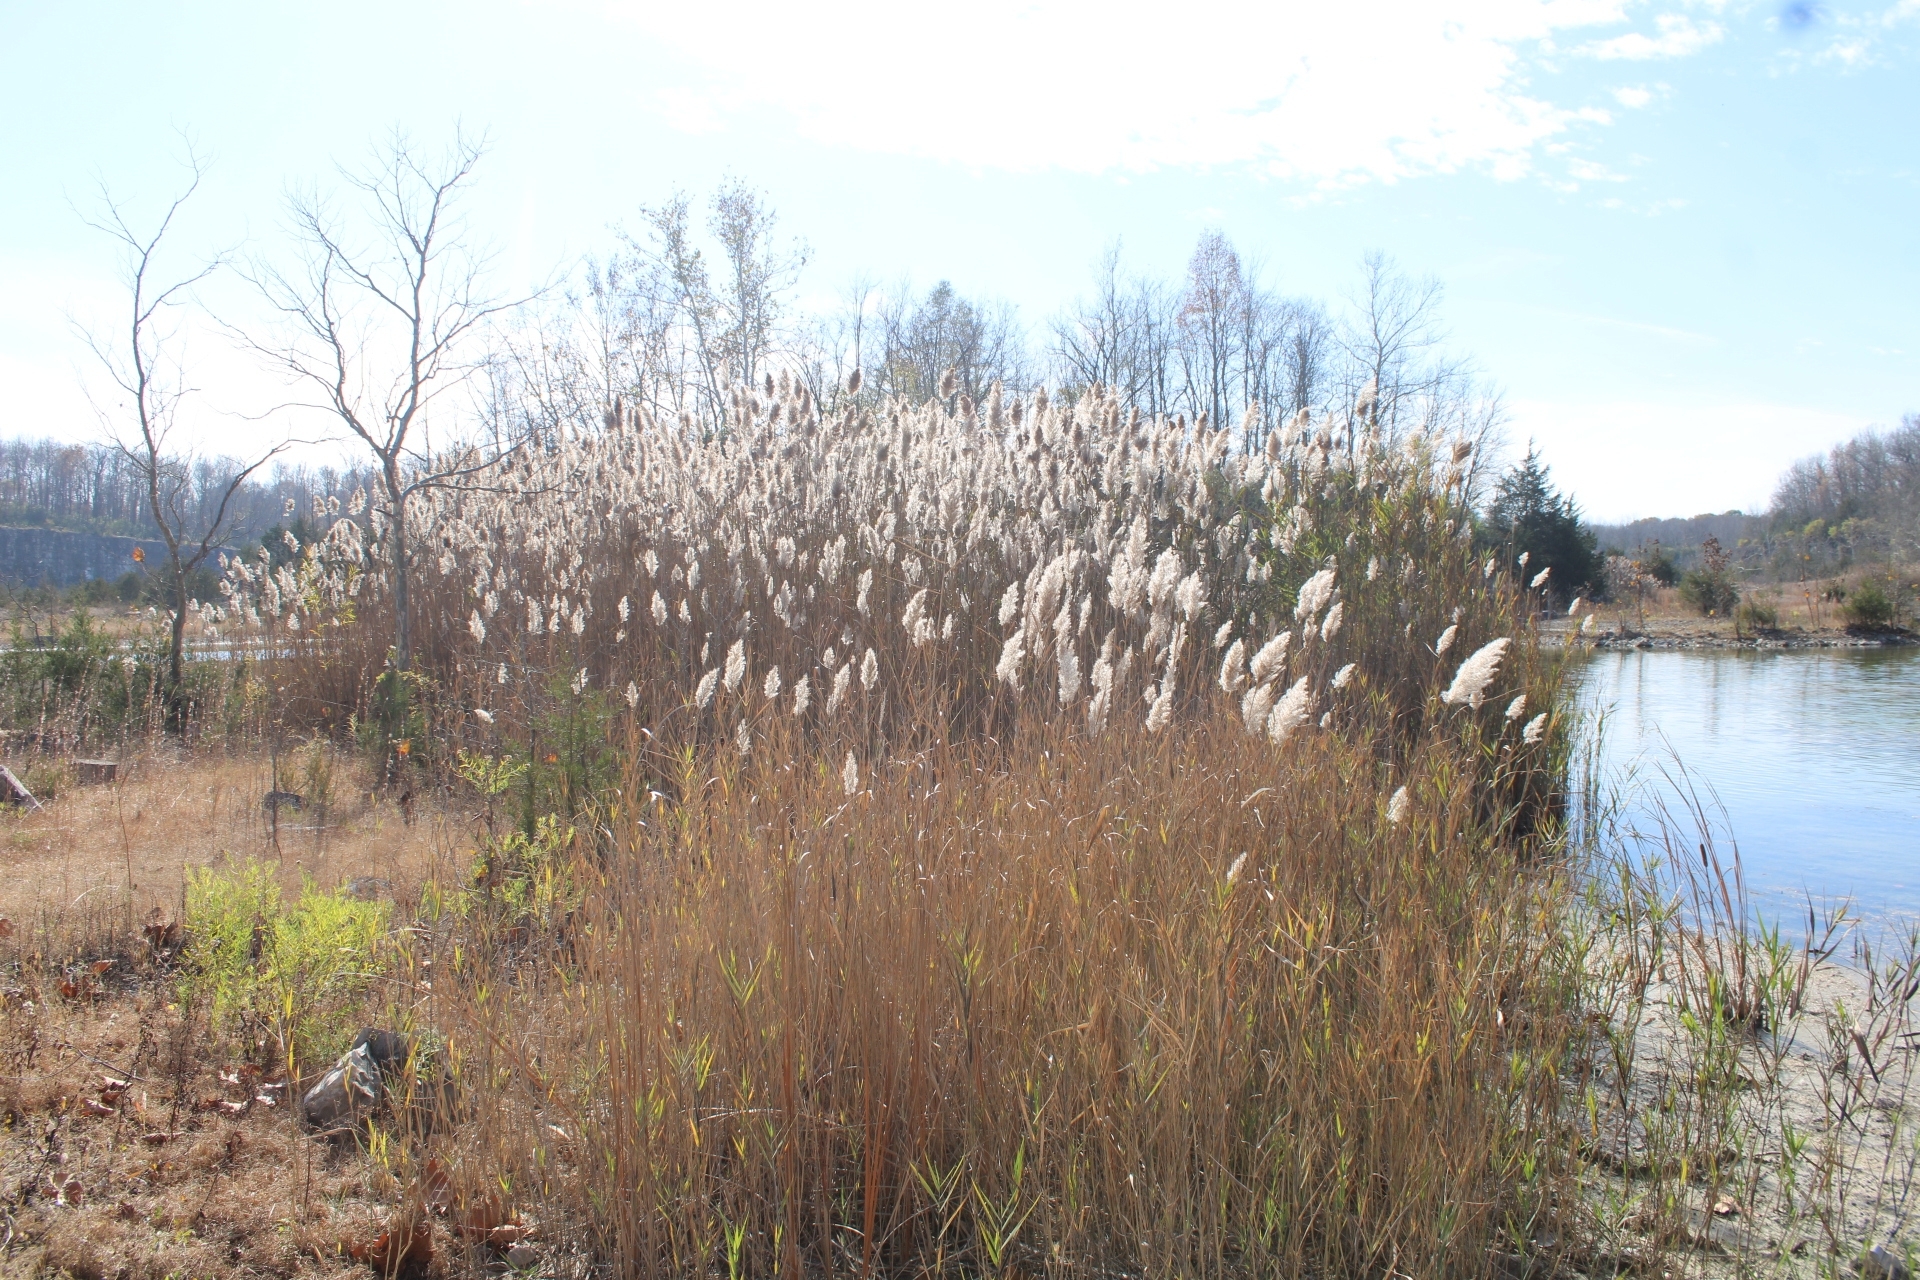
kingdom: Plantae
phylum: Tracheophyta
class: Liliopsida
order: Poales
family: Poaceae
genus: Phragmites
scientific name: Phragmites australis
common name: Common reed
